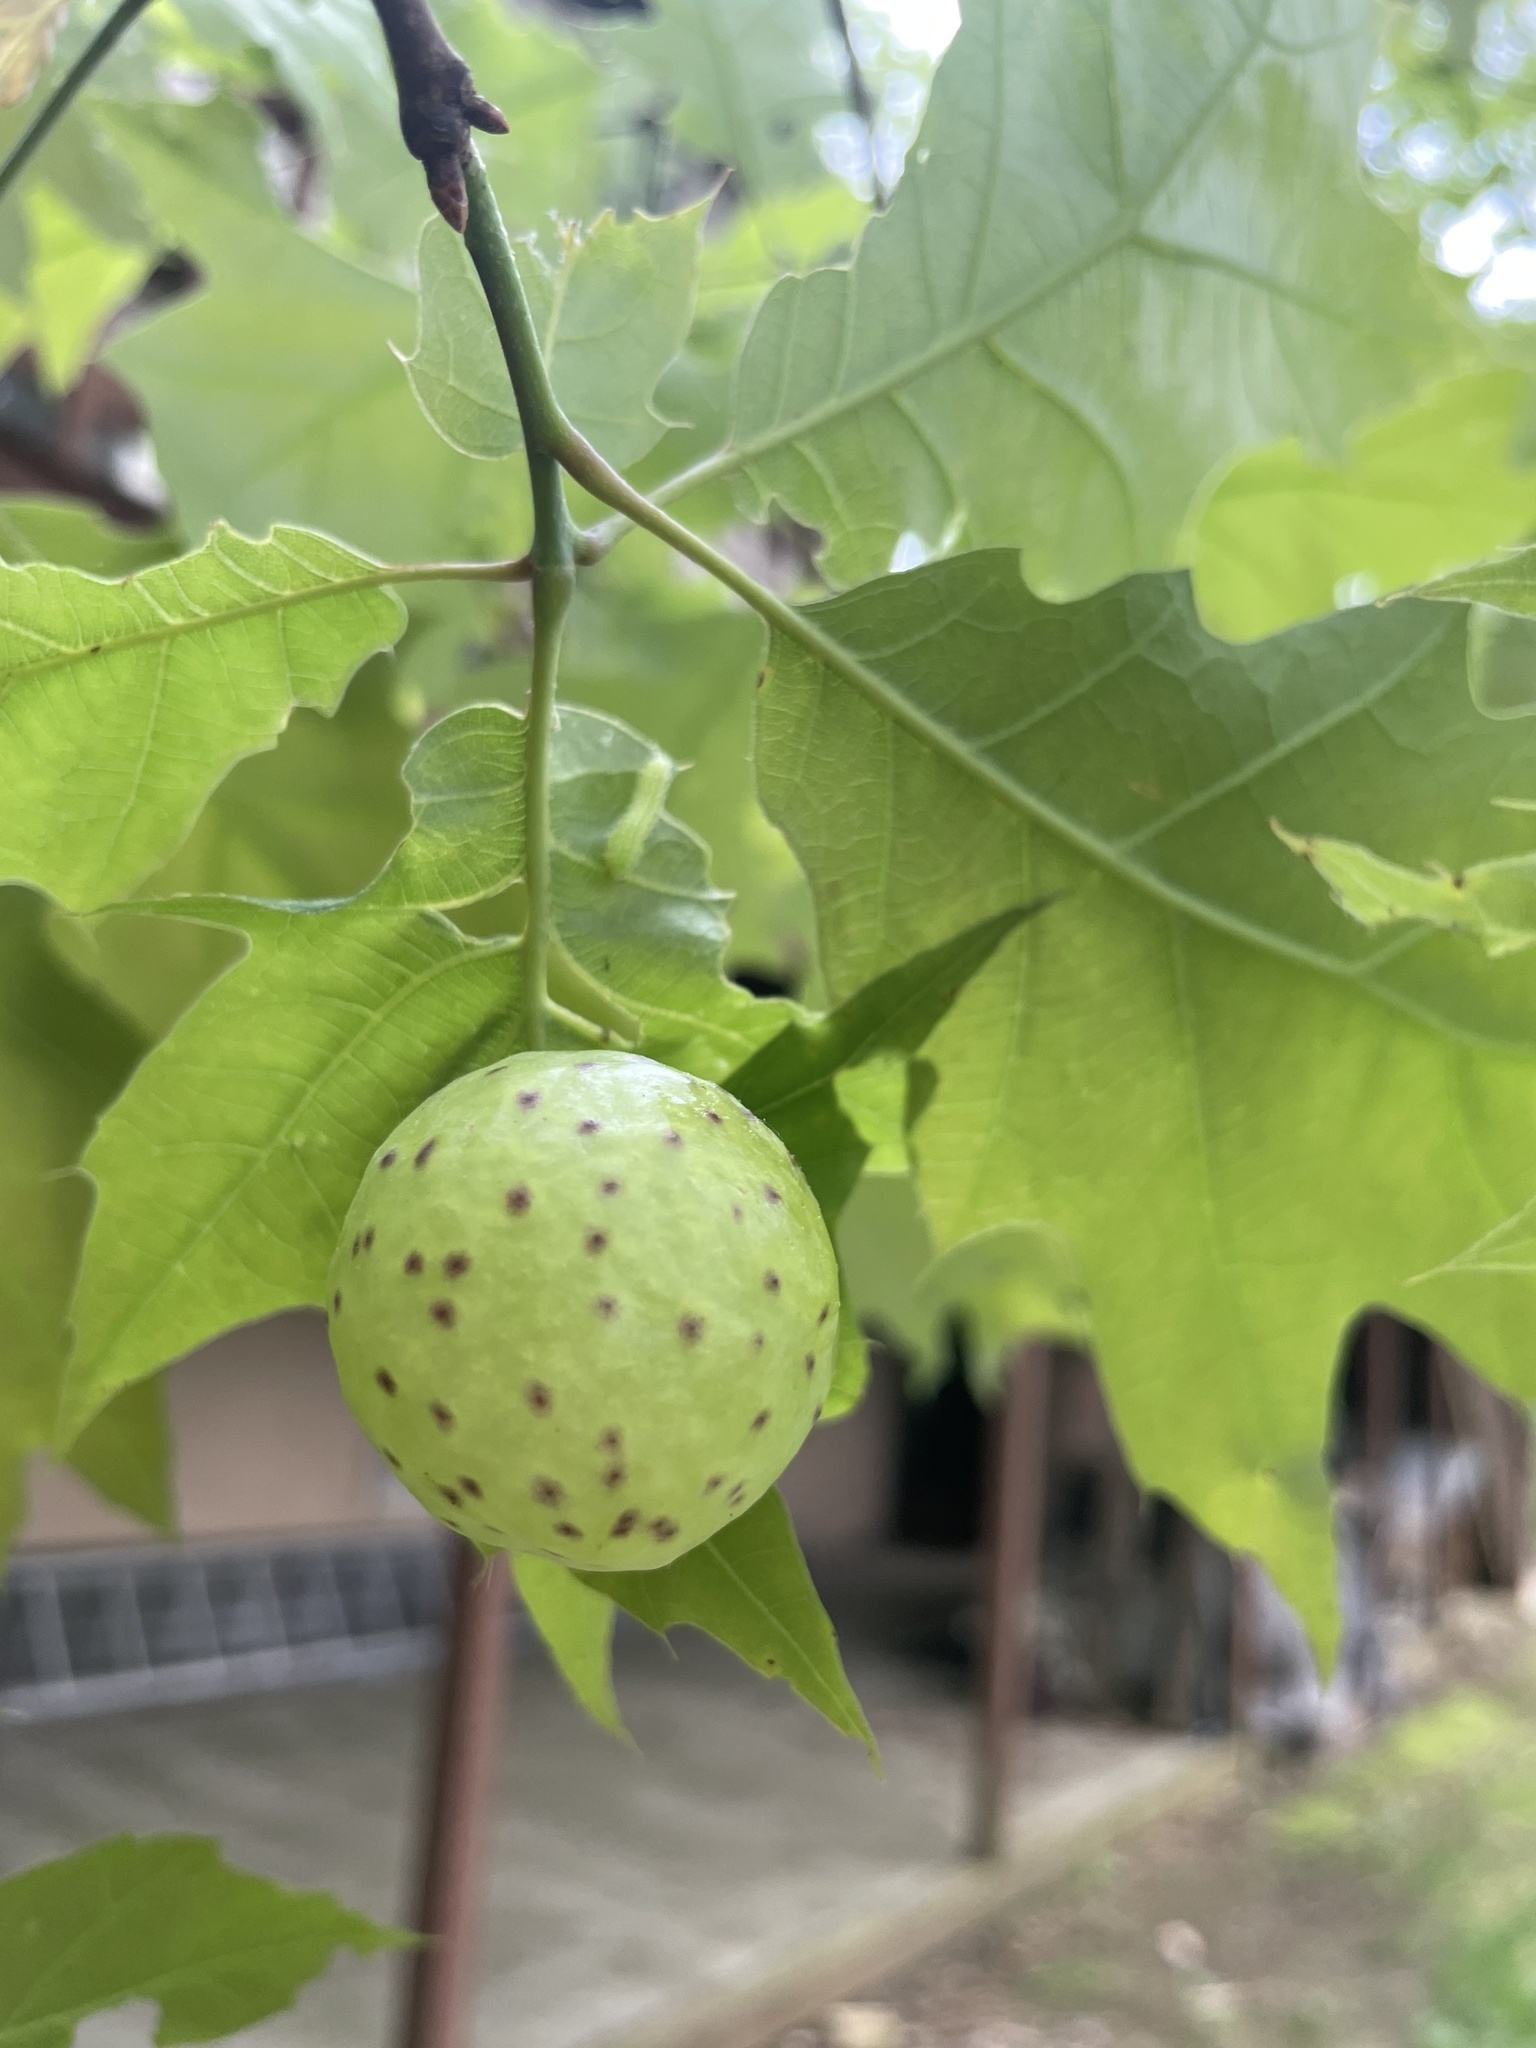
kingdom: Animalia
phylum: Arthropoda
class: Insecta
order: Hymenoptera
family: Cynipidae
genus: Amphibolips
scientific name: Amphibolips
